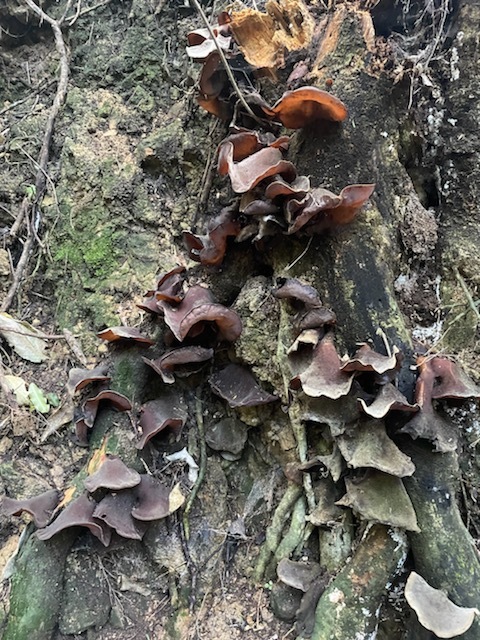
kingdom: Fungi
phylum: Basidiomycota
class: Agaricomycetes
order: Auriculariales
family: Auriculariaceae
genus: Auricularia
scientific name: Auricularia cornea
